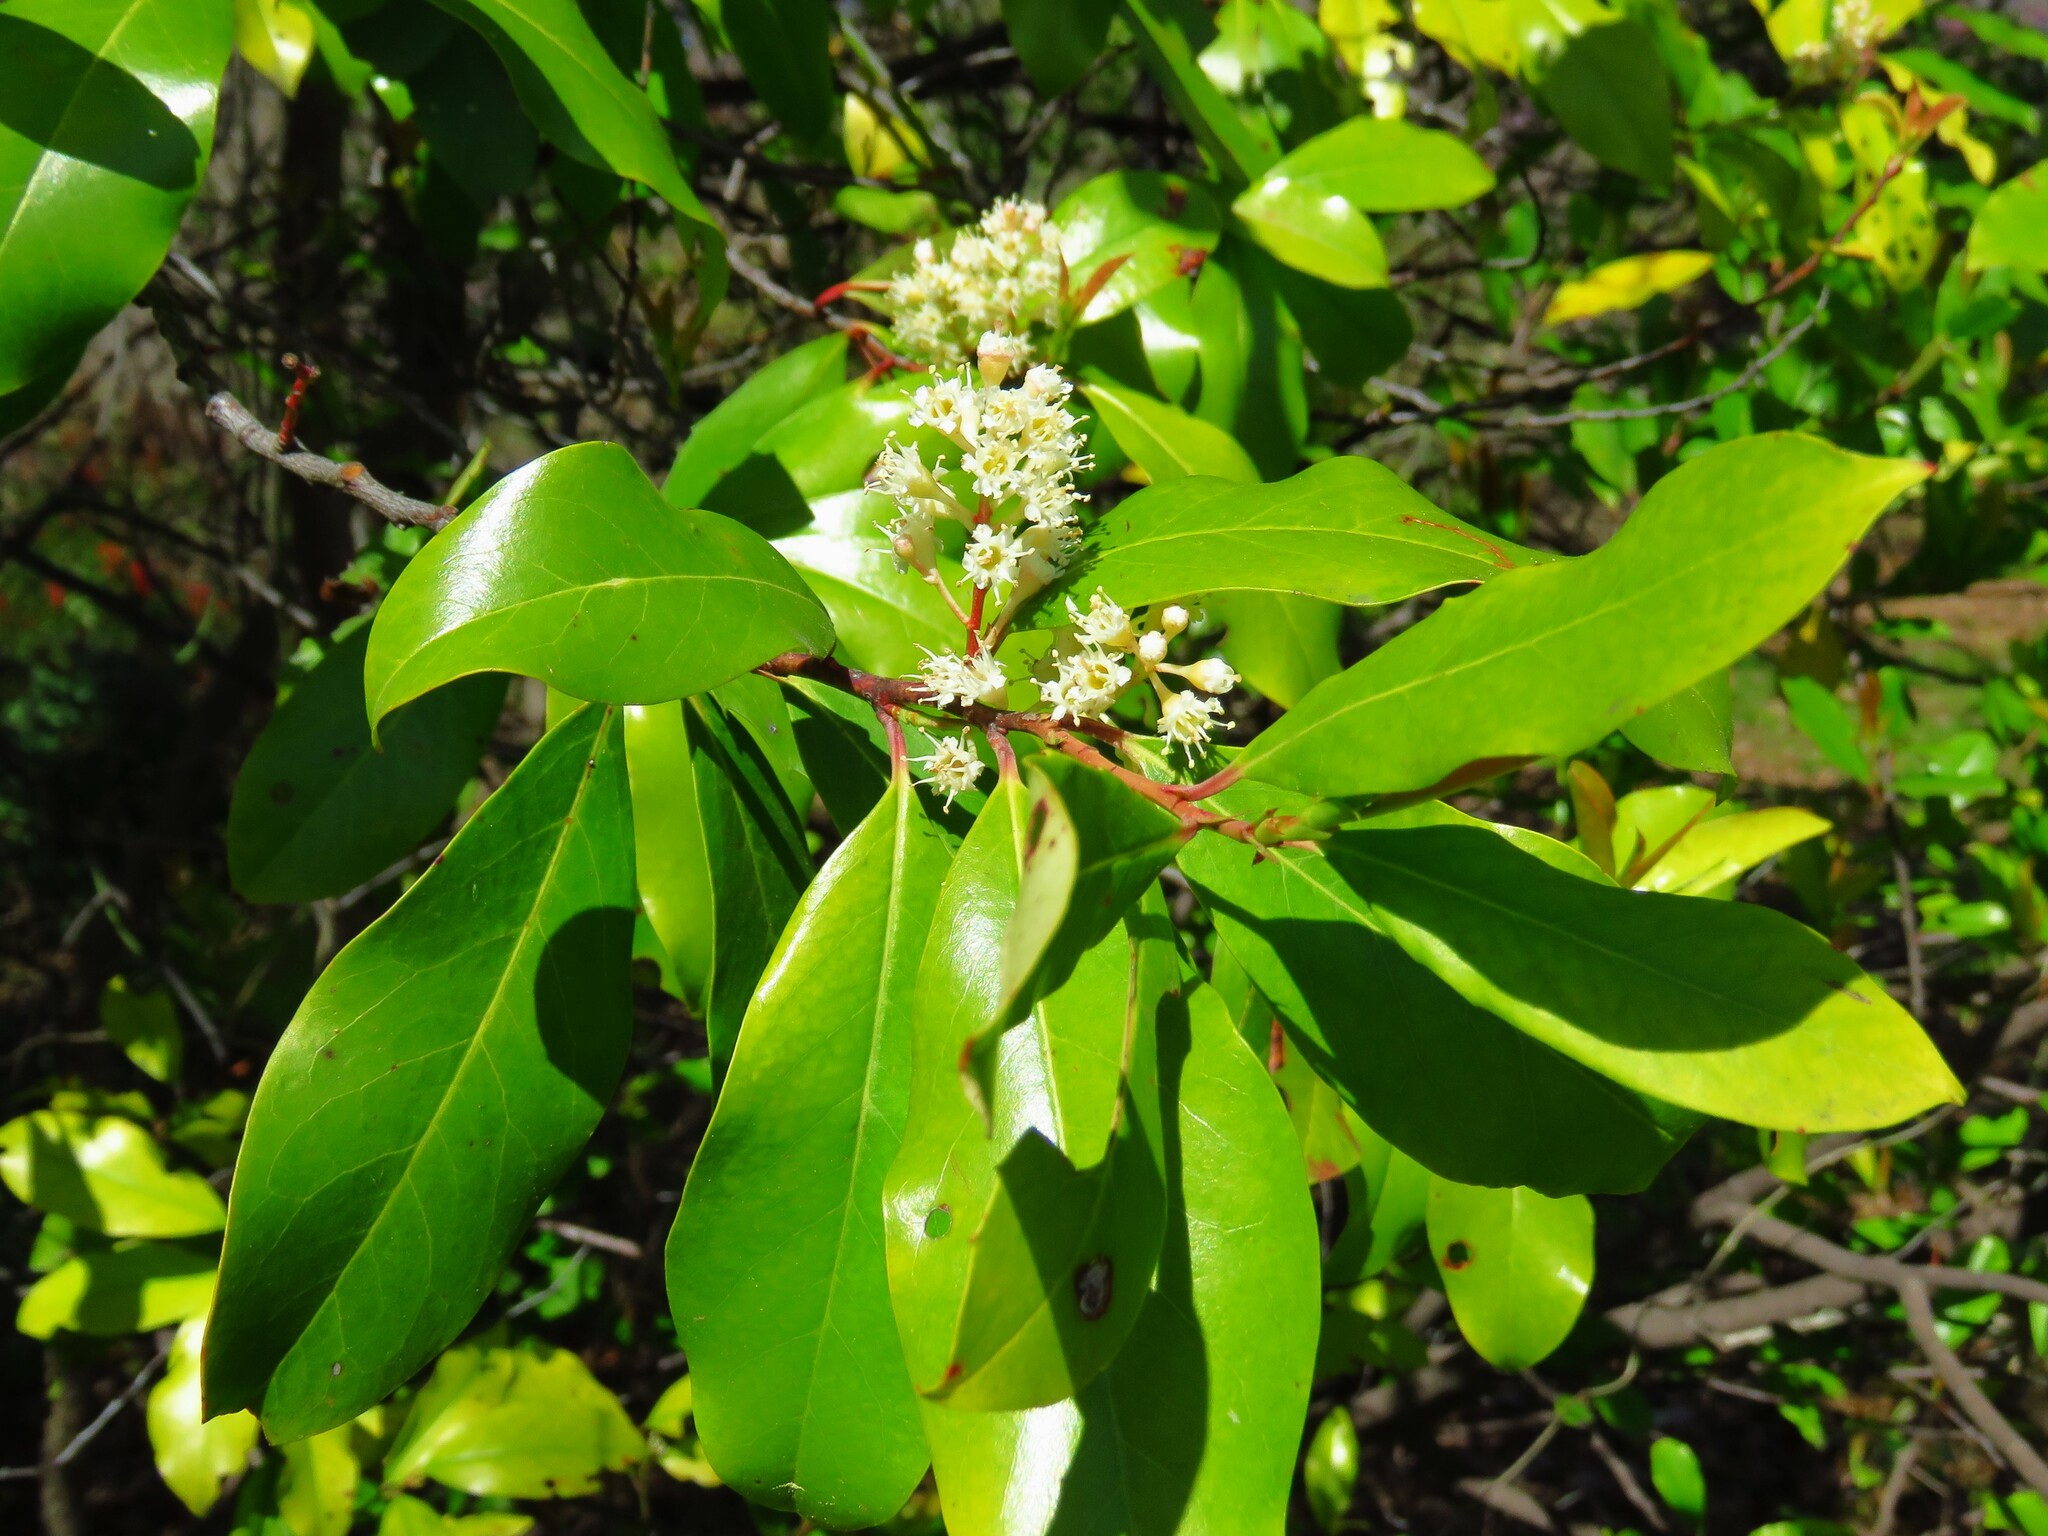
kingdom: Plantae
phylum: Tracheophyta
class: Magnoliopsida
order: Rosales
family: Rosaceae
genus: Prunus
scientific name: Prunus caroliniana
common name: Carolina laurel cherry
